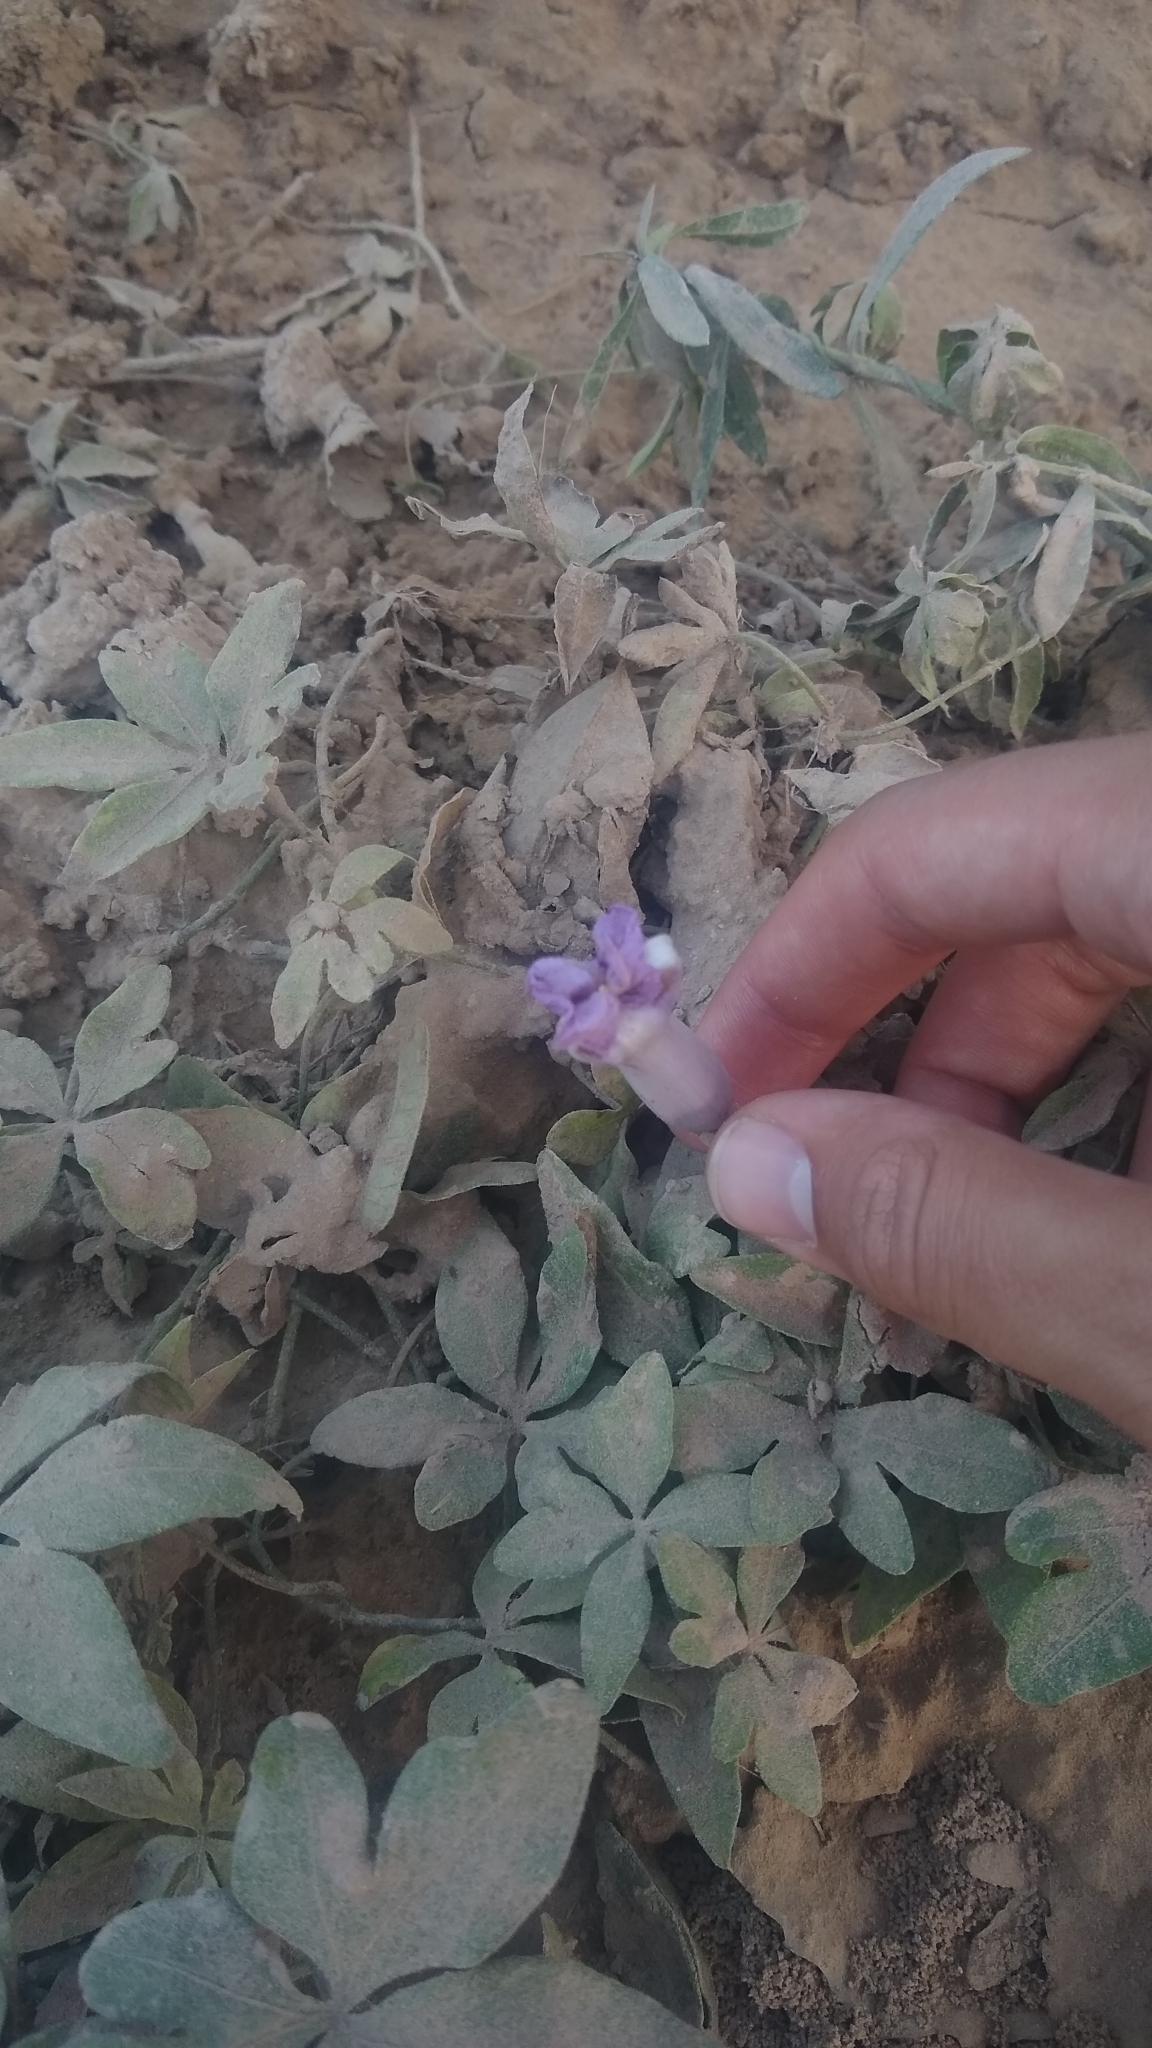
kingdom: Plantae
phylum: Tracheophyta
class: Magnoliopsida
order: Solanales
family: Convolvulaceae
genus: Ipomoea
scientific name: Ipomoea cairica
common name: Mile a minute vine
